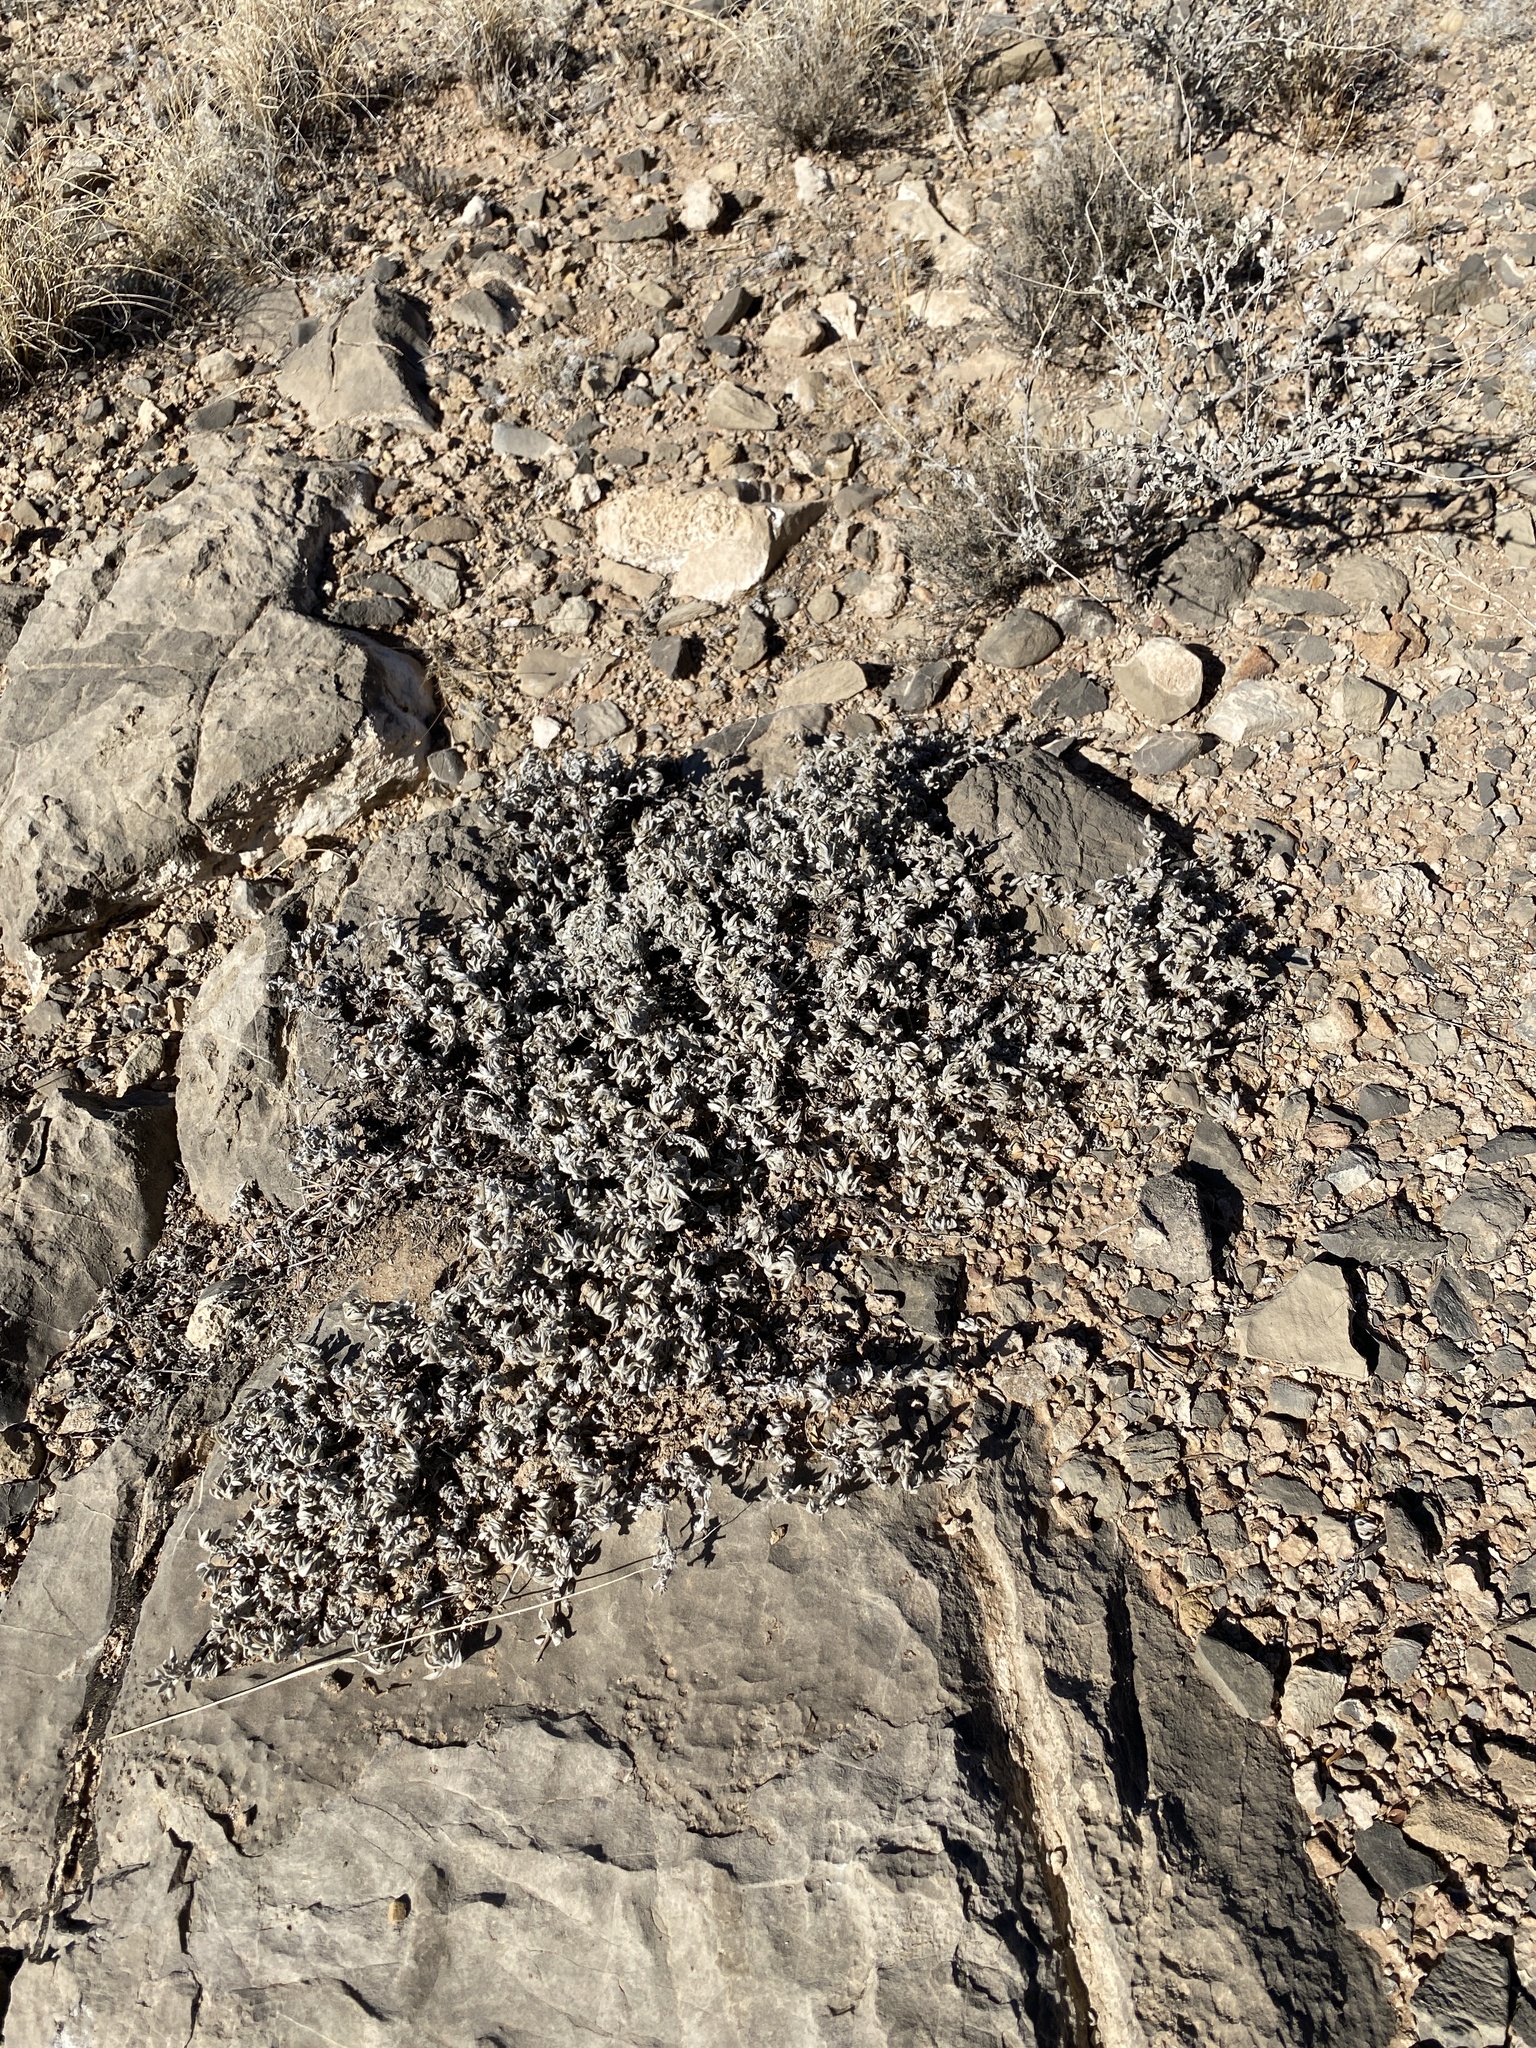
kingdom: Plantae
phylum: Tracheophyta
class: Magnoliopsida
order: Boraginales
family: Ehretiaceae
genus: Tiquilia
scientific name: Tiquilia canescens
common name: Hairy tiquilia
